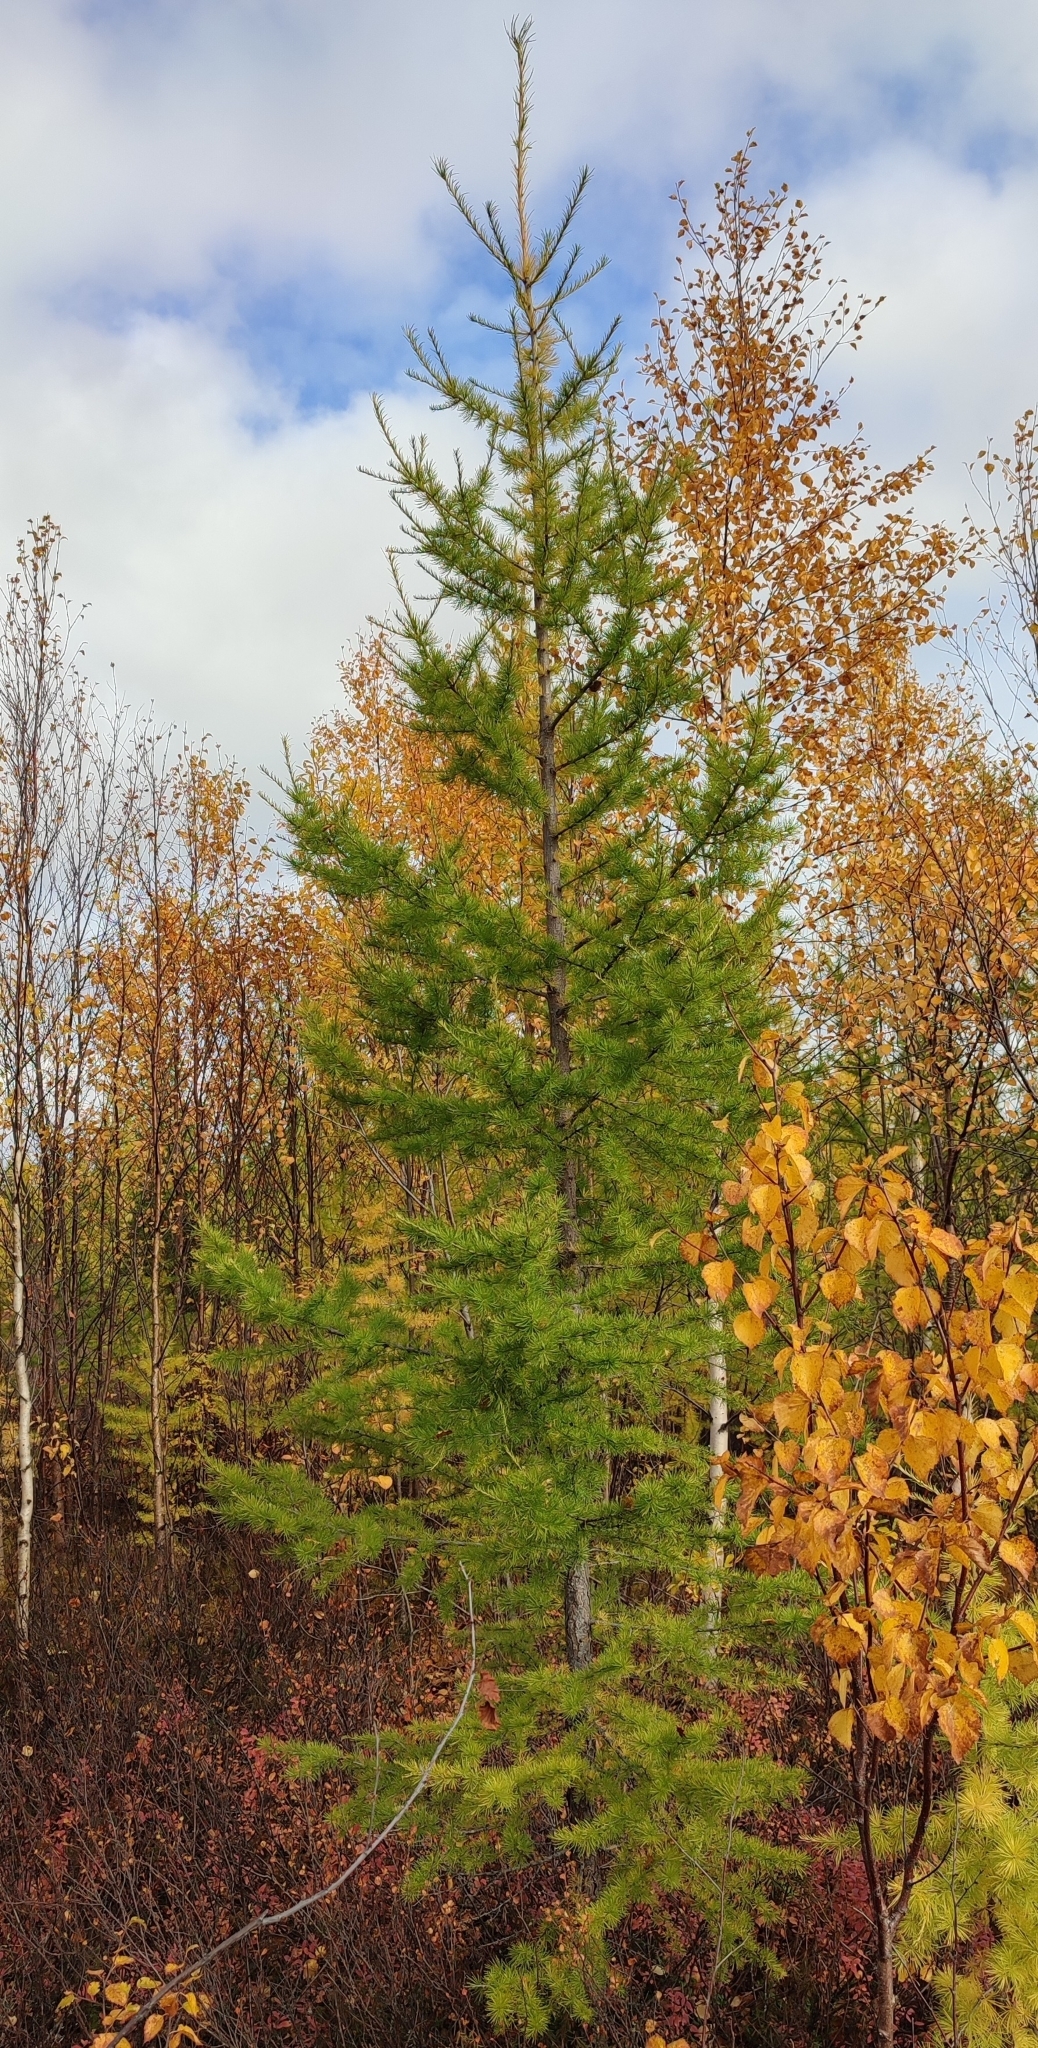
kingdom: Plantae
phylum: Tracheophyta
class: Pinopsida
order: Pinales
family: Pinaceae
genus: Larix
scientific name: Larix sibirica
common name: Siberian larch
